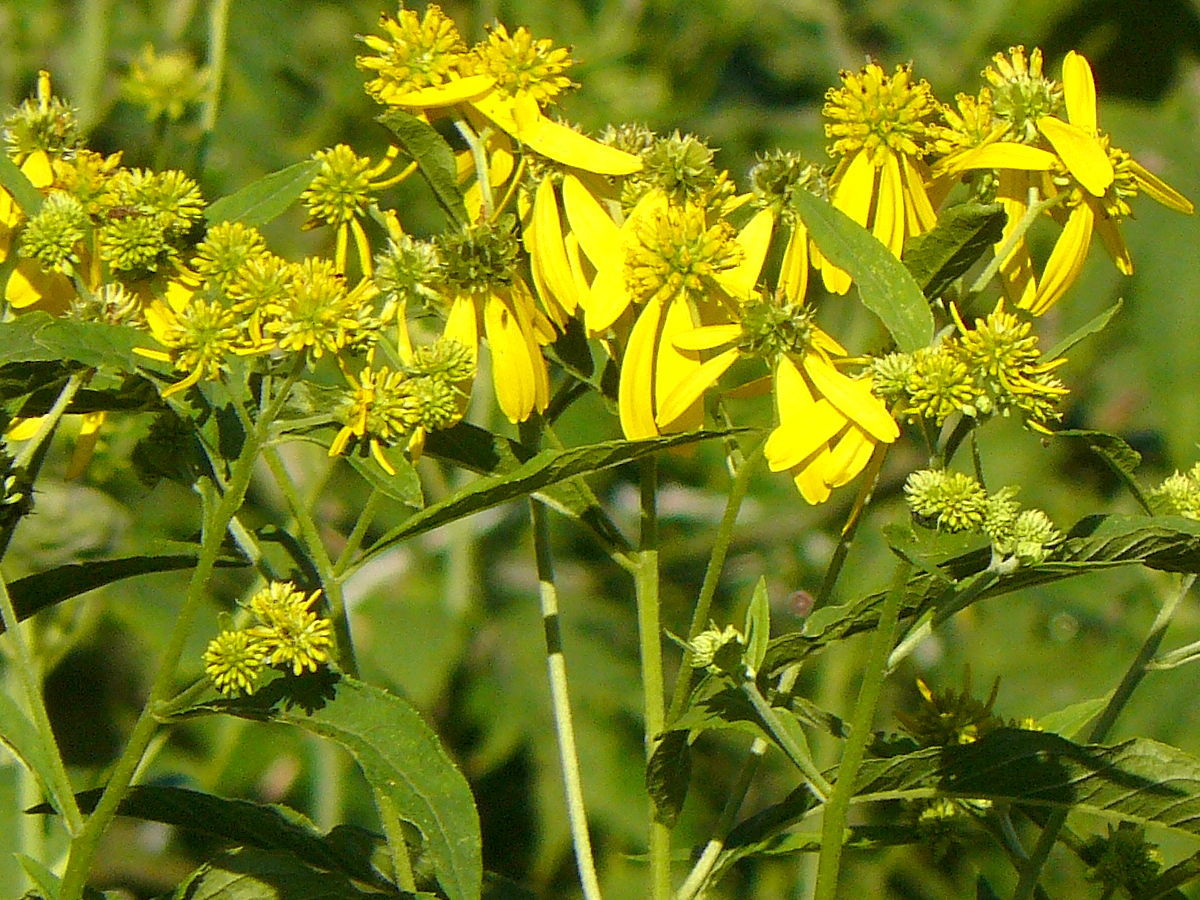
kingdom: Plantae
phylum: Tracheophyta
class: Magnoliopsida
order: Asterales
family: Asteraceae
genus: Verbesina
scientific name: Verbesina alternifolia
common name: Wingstem
